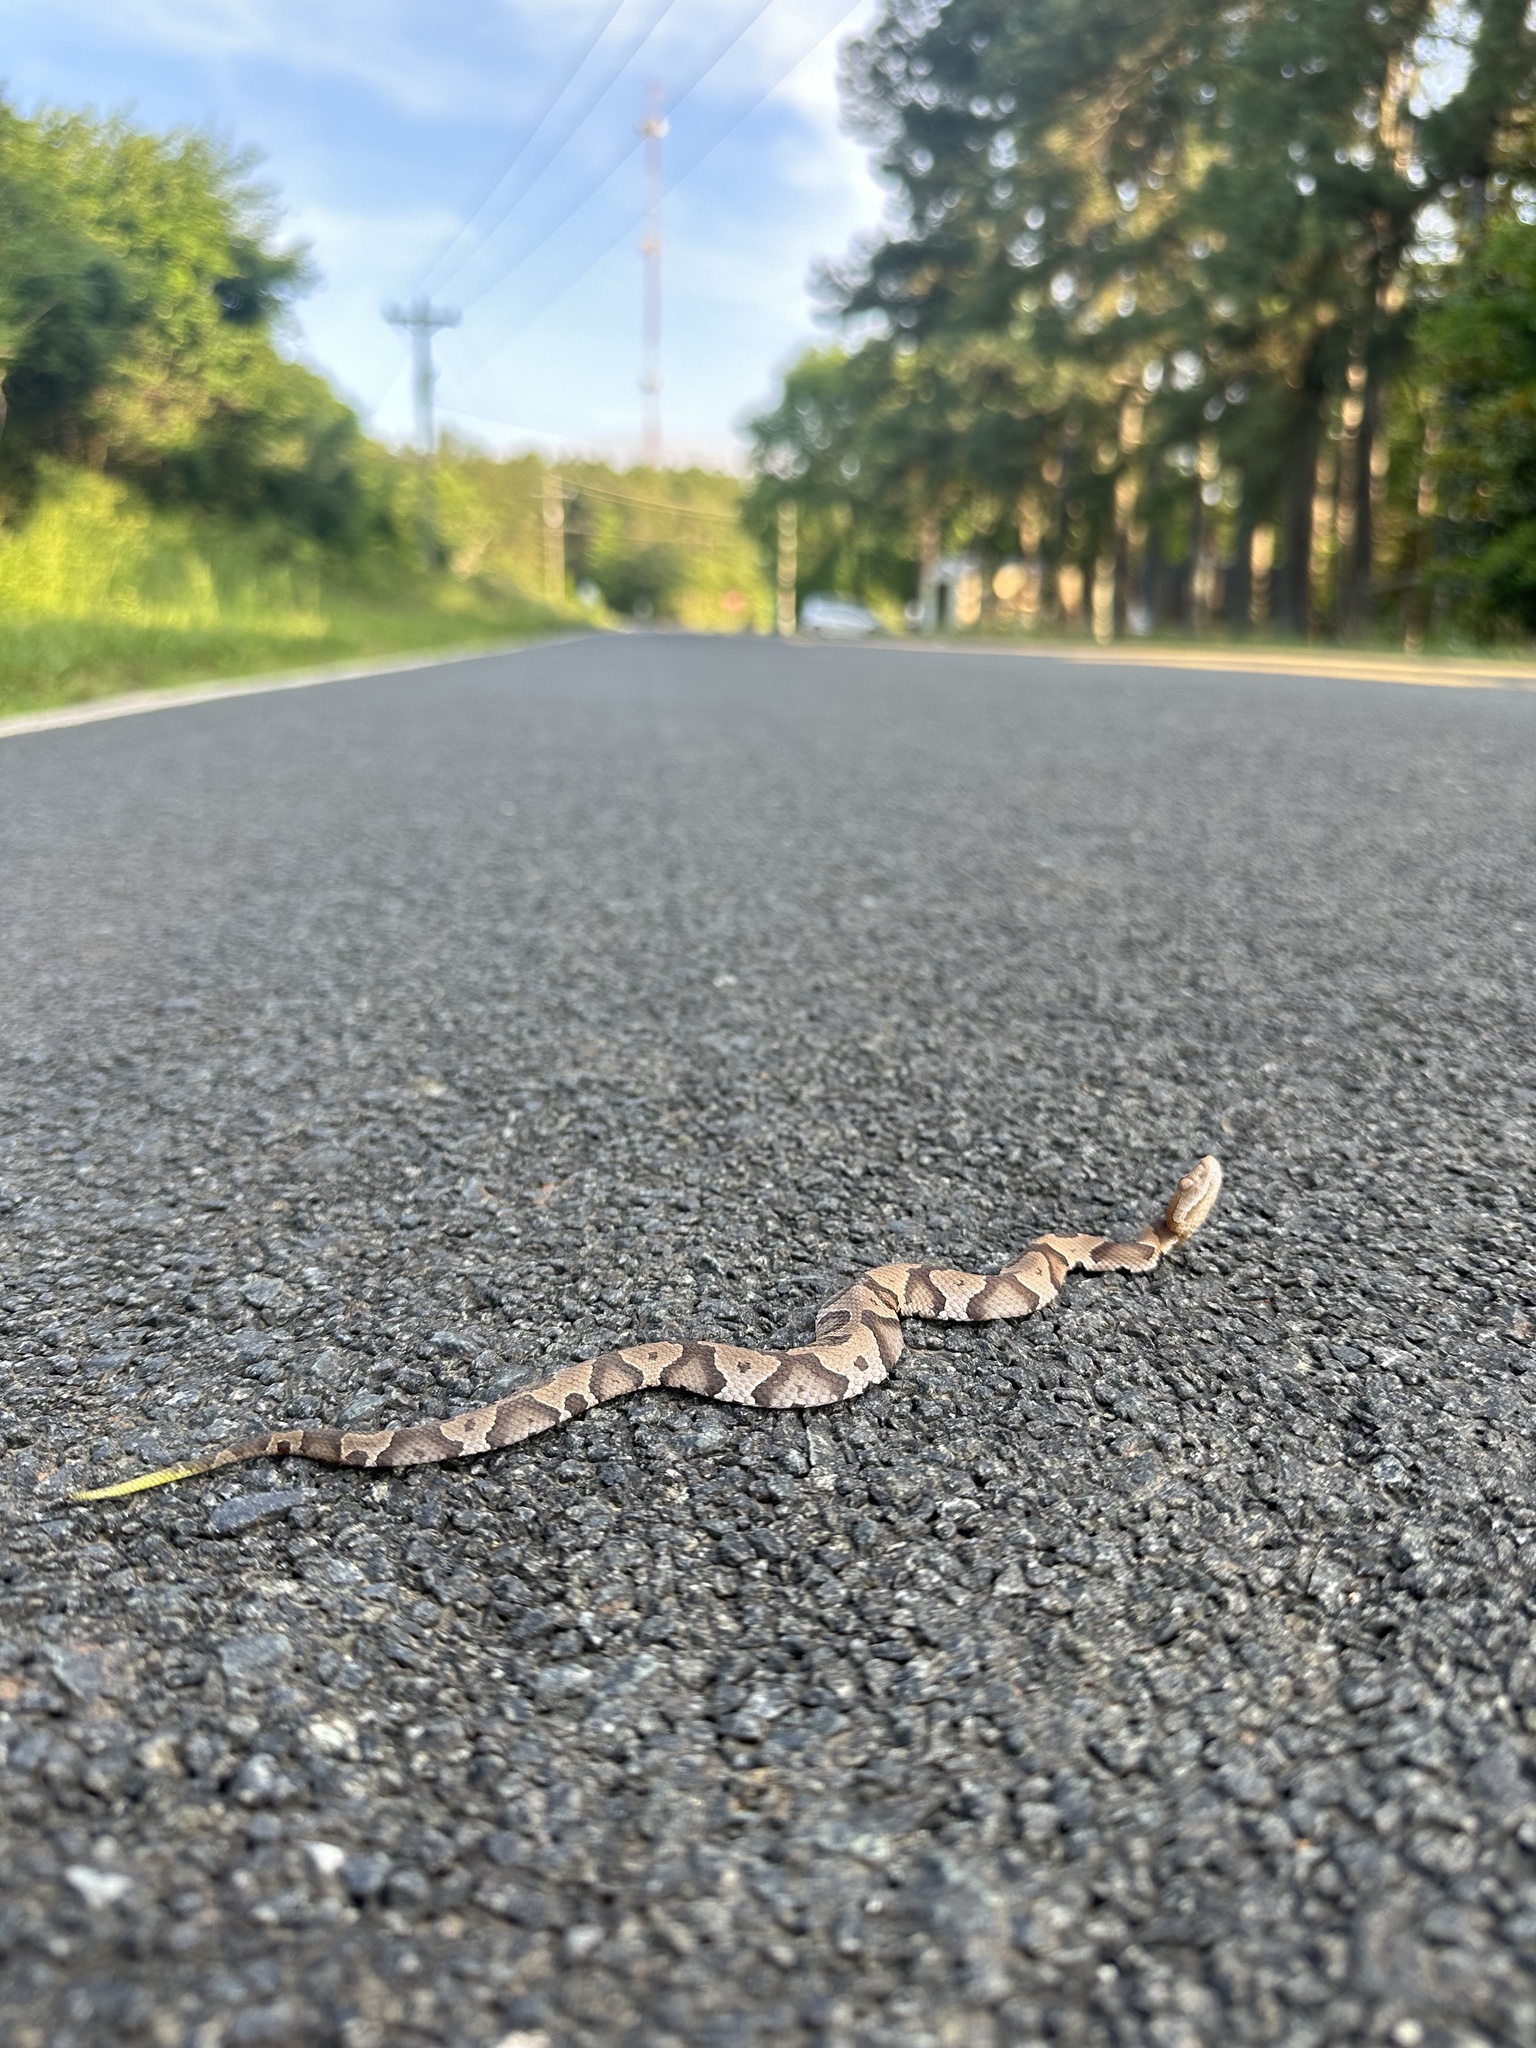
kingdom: Animalia
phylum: Chordata
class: Squamata
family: Viperidae
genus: Agkistrodon
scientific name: Agkistrodon contortrix
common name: Northern copperhead
